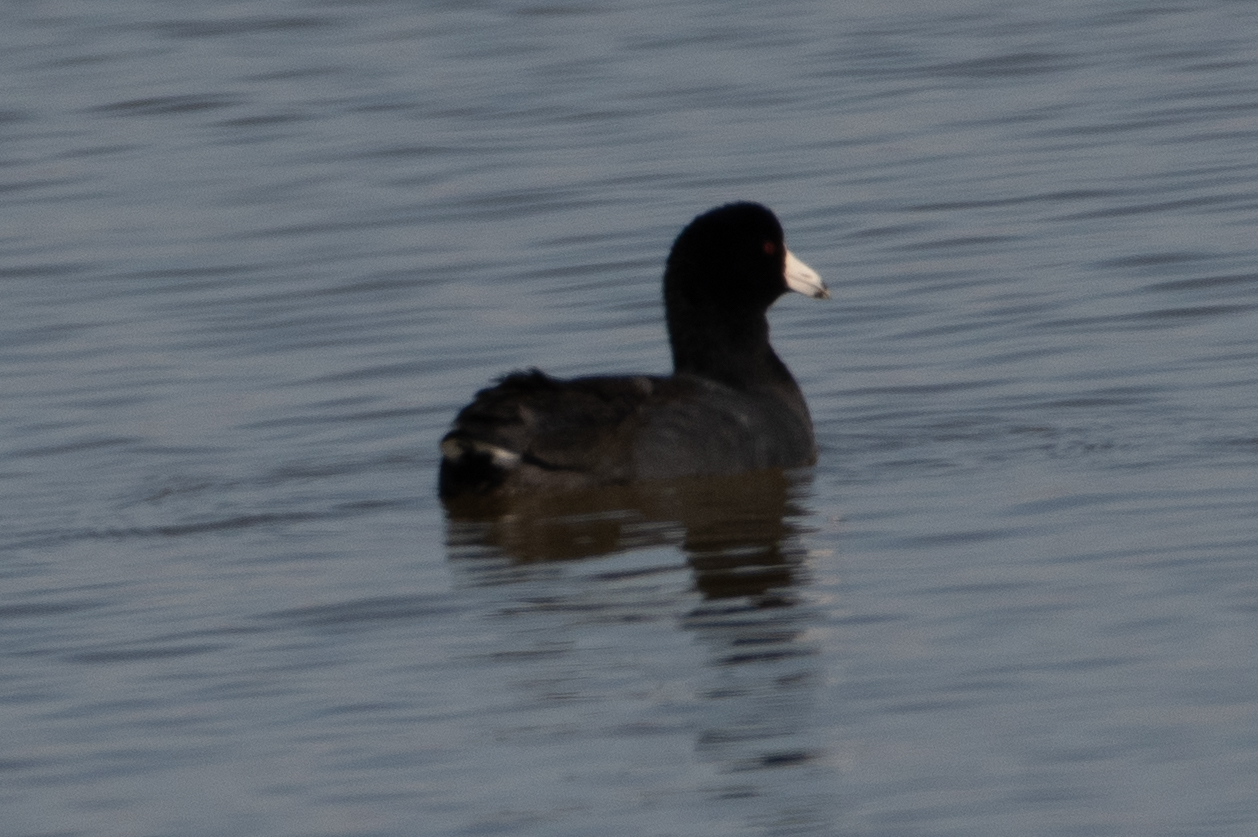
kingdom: Animalia
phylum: Chordata
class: Aves
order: Gruiformes
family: Rallidae
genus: Fulica
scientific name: Fulica americana
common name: American coot
